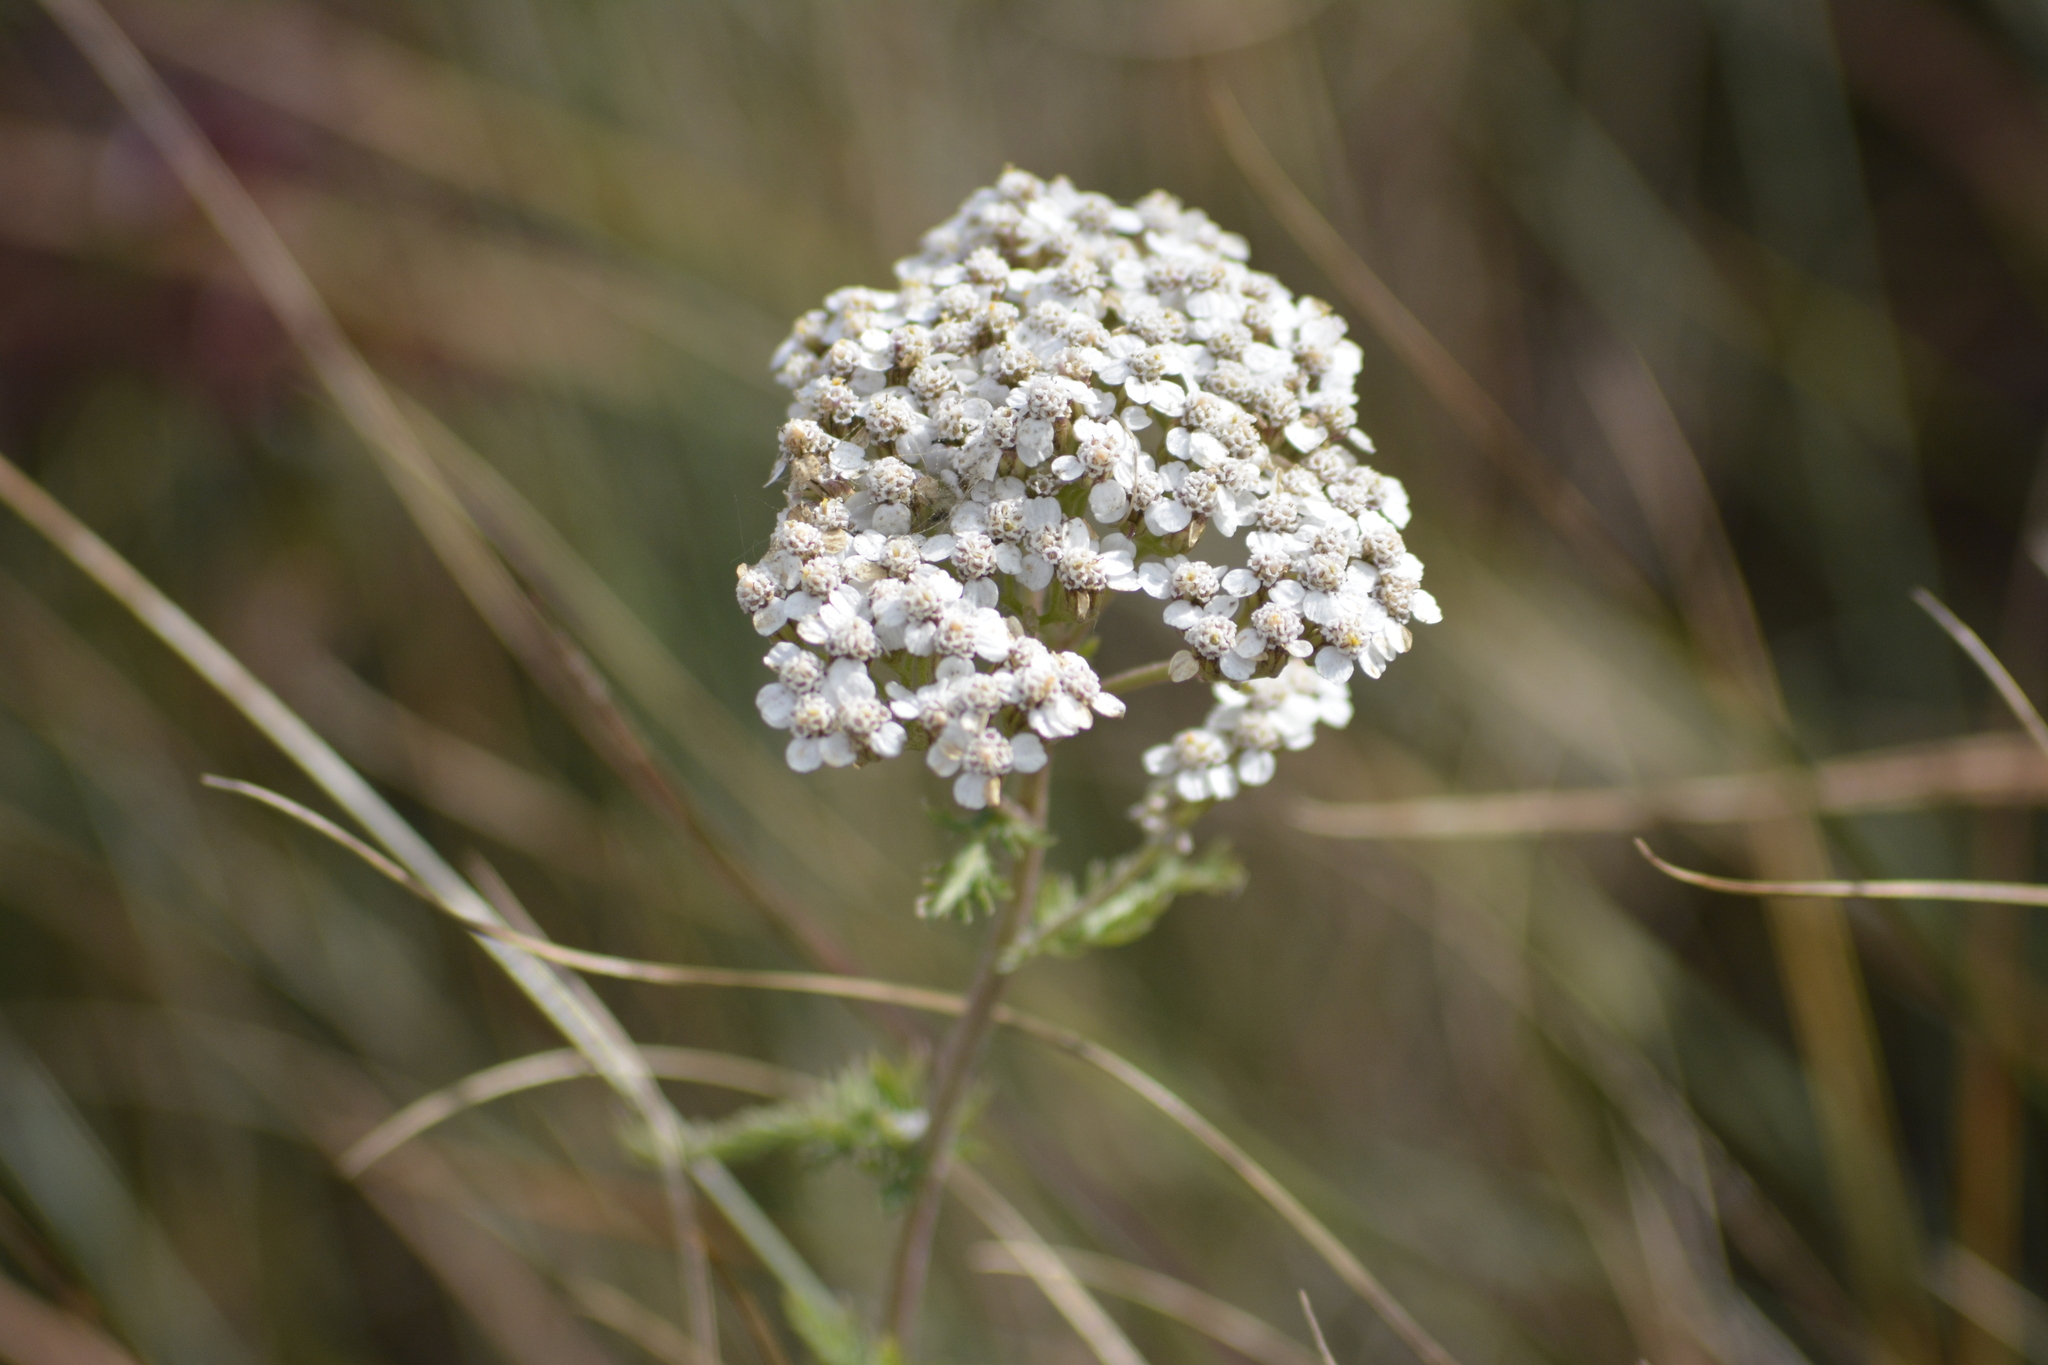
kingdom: Plantae
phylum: Tracheophyta
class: Magnoliopsida
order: Asterales
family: Asteraceae
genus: Achillea
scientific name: Achillea millefolium
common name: Yarrow
